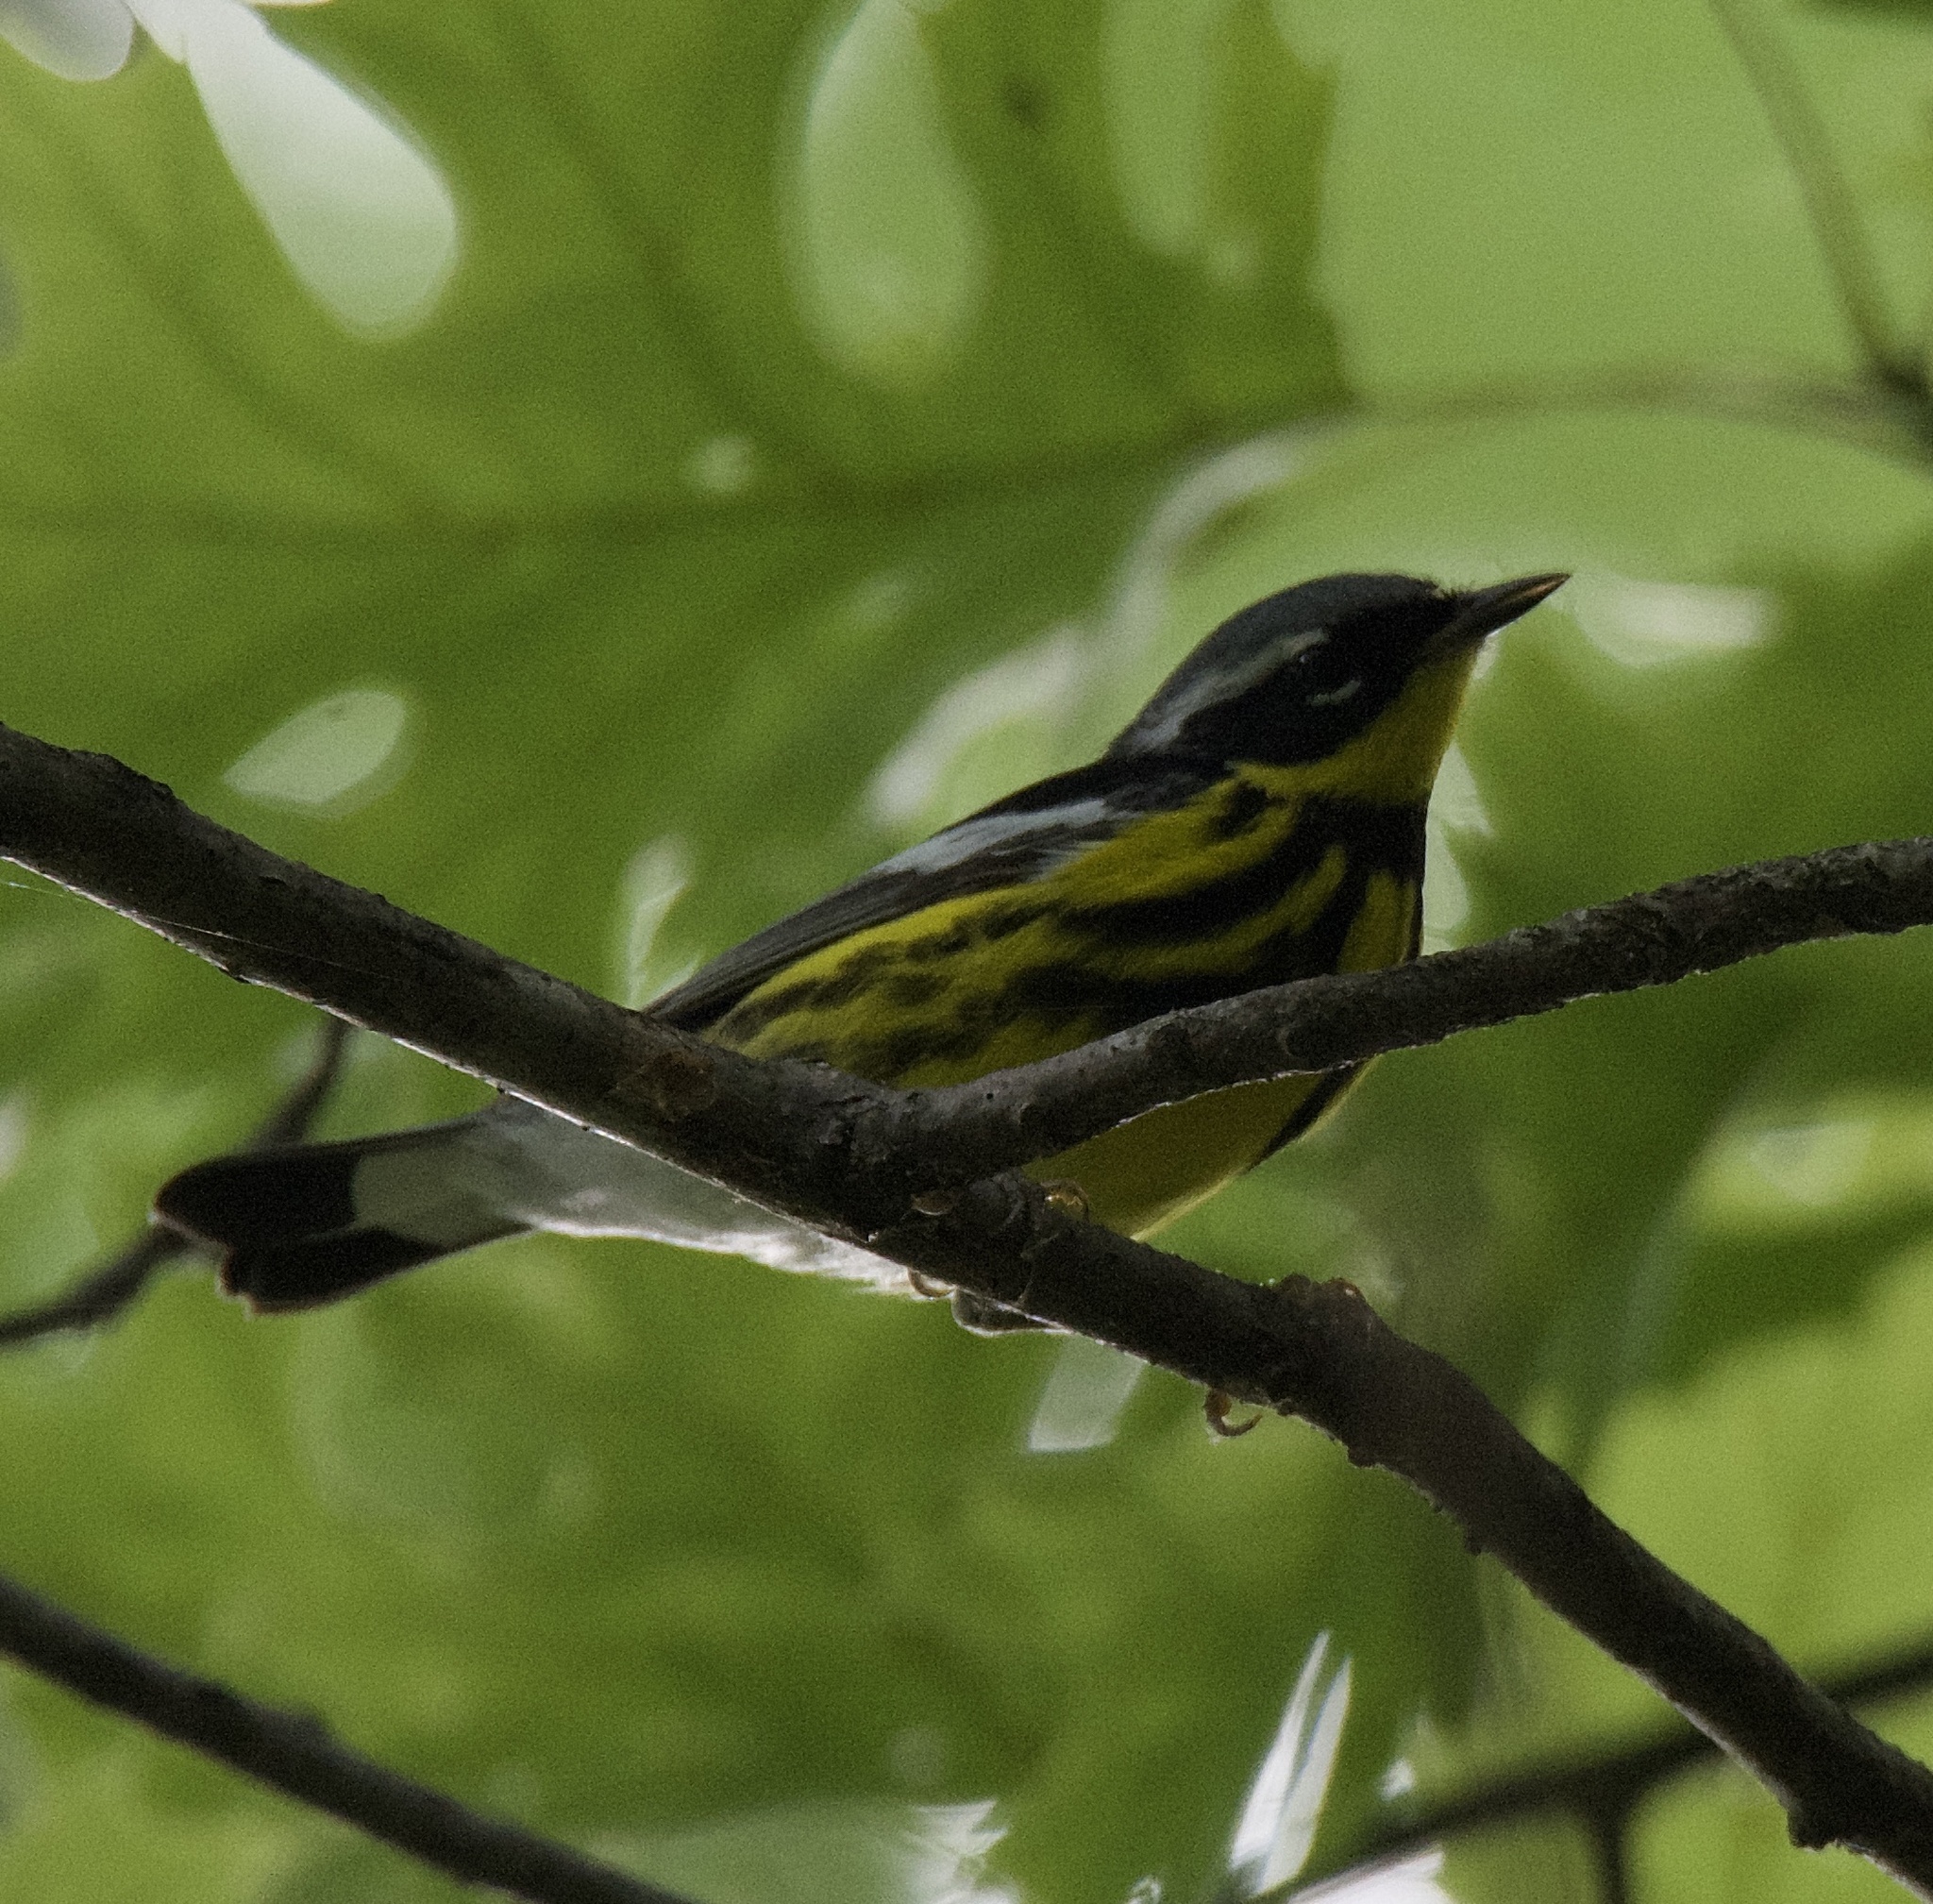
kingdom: Animalia
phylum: Chordata
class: Aves
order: Passeriformes
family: Parulidae
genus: Setophaga
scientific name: Setophaga magnolia
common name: Magnolia warbler
